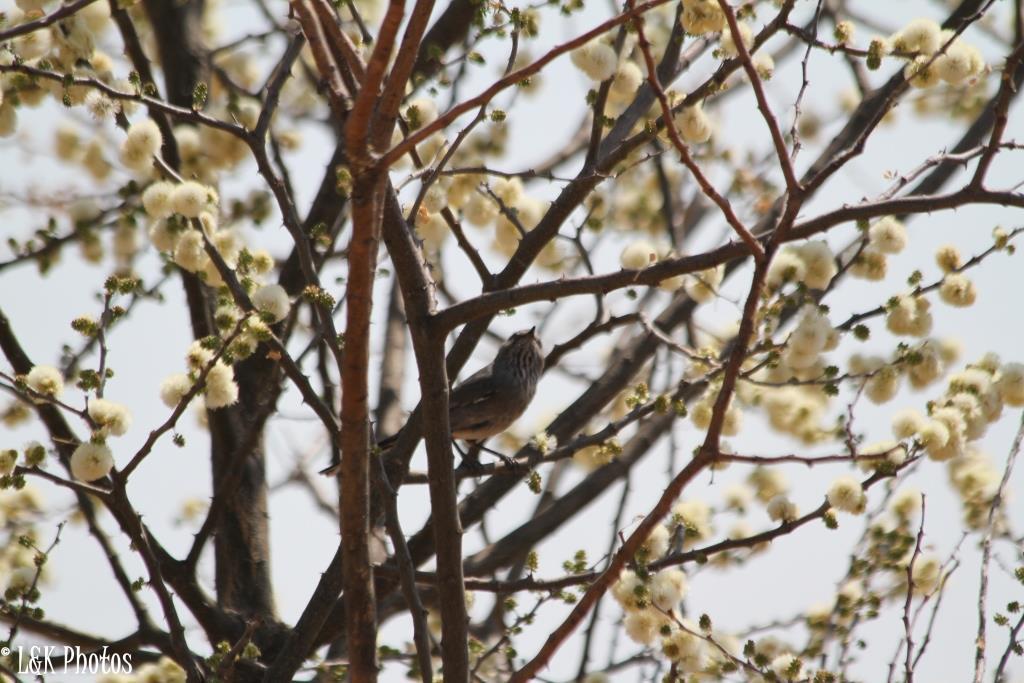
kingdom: Animalia
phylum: Chordata
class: Aves
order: Passeriformes
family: Sylviidae
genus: Curruca
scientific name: Curruca subcoerulea
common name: Chestnut-vented warbler
